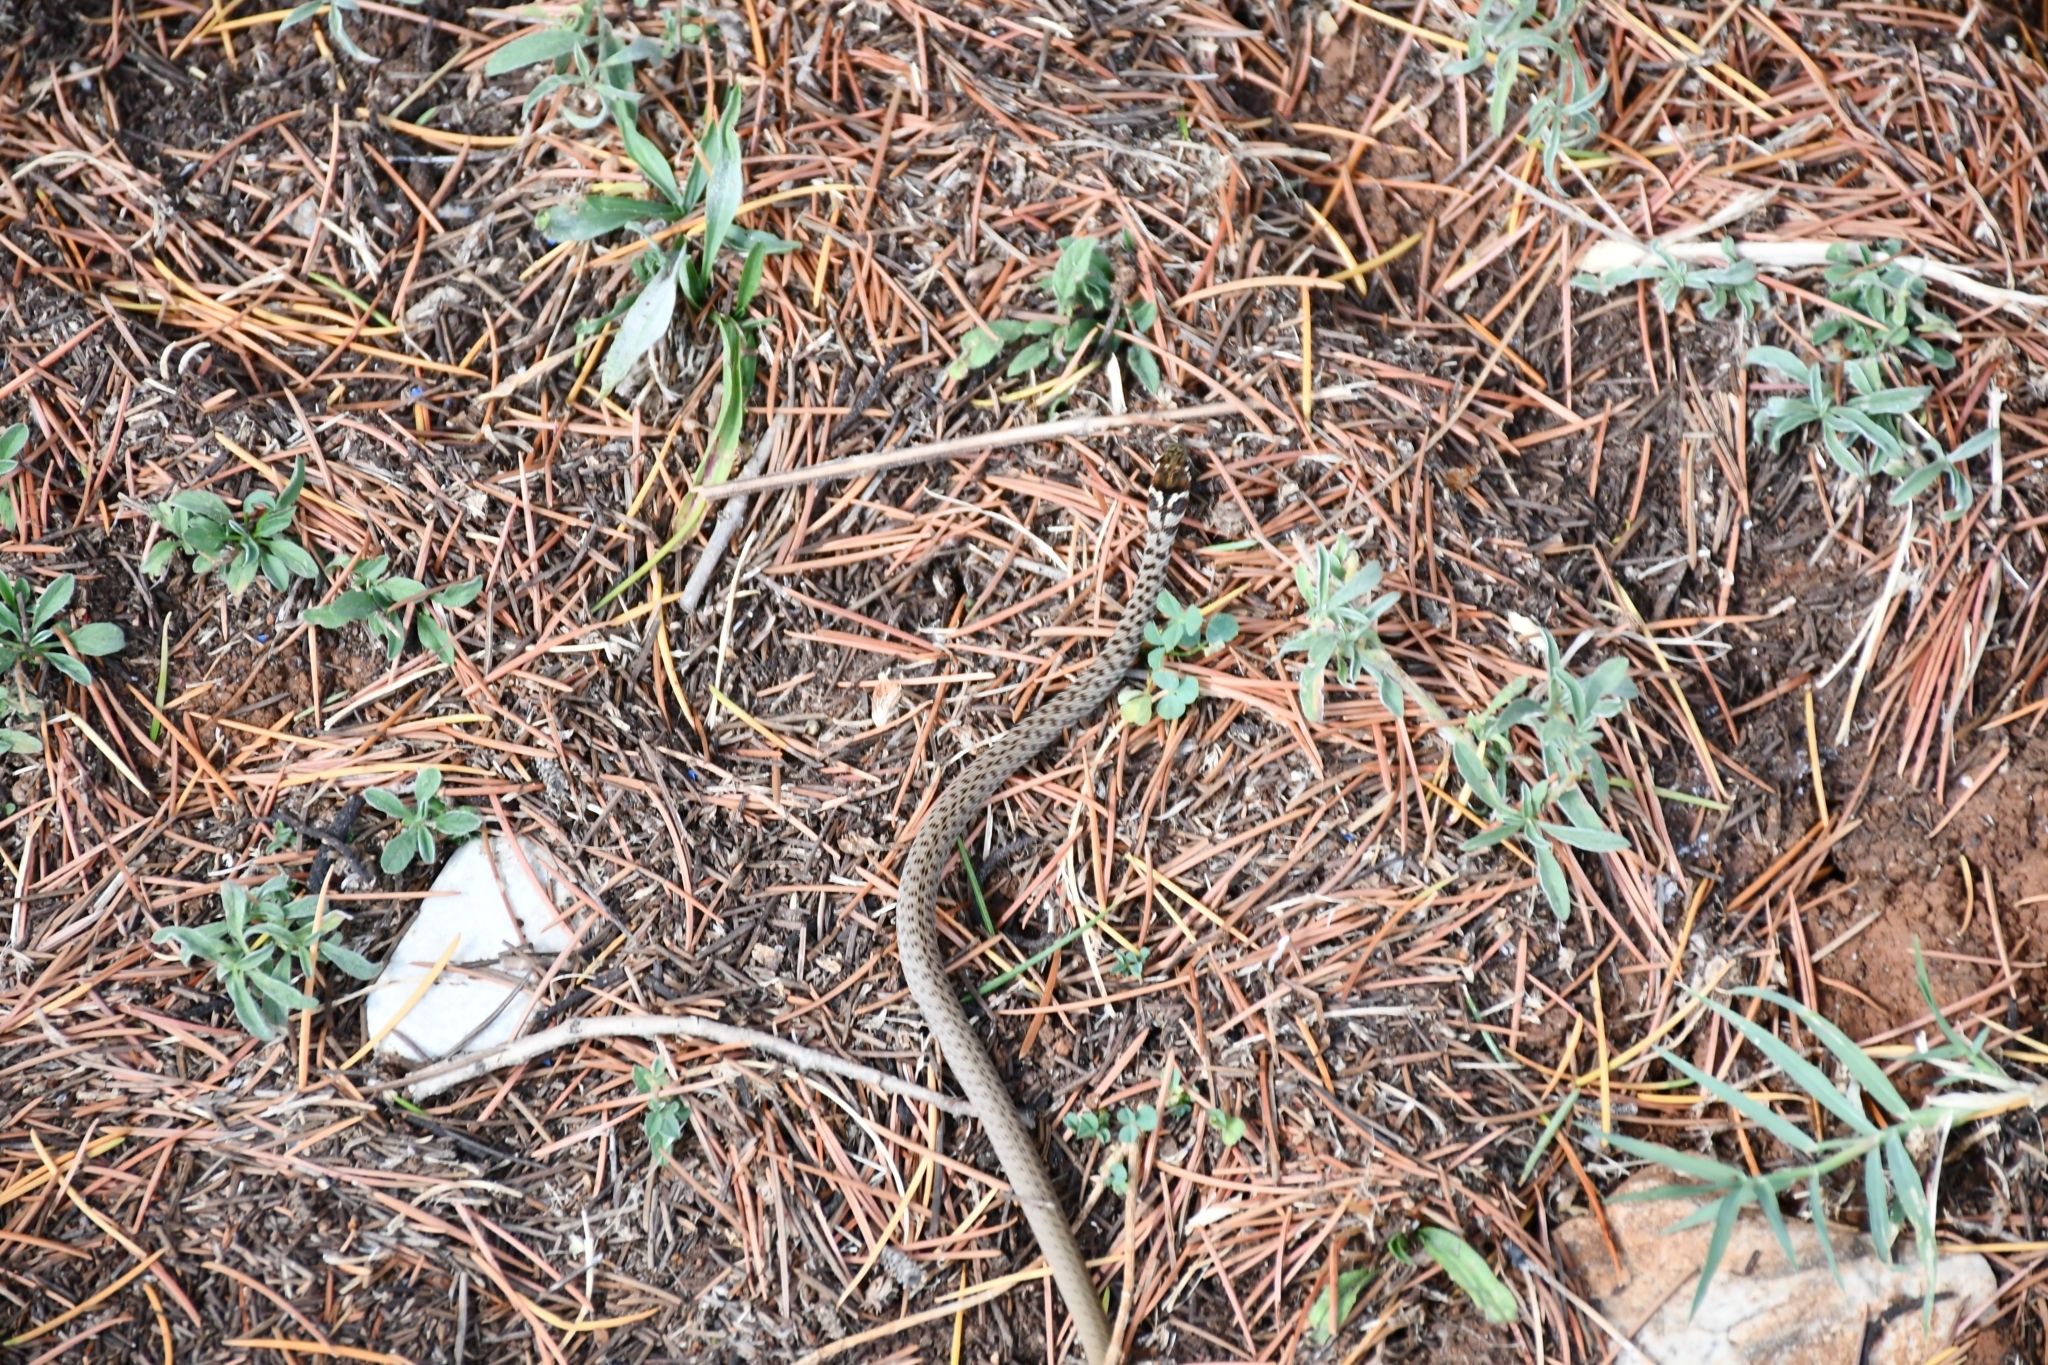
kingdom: Animalia
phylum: Chordata
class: Squamata
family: Colubridae
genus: Hierophis
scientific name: Hierophis gemonensis
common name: Balkan whip snake
